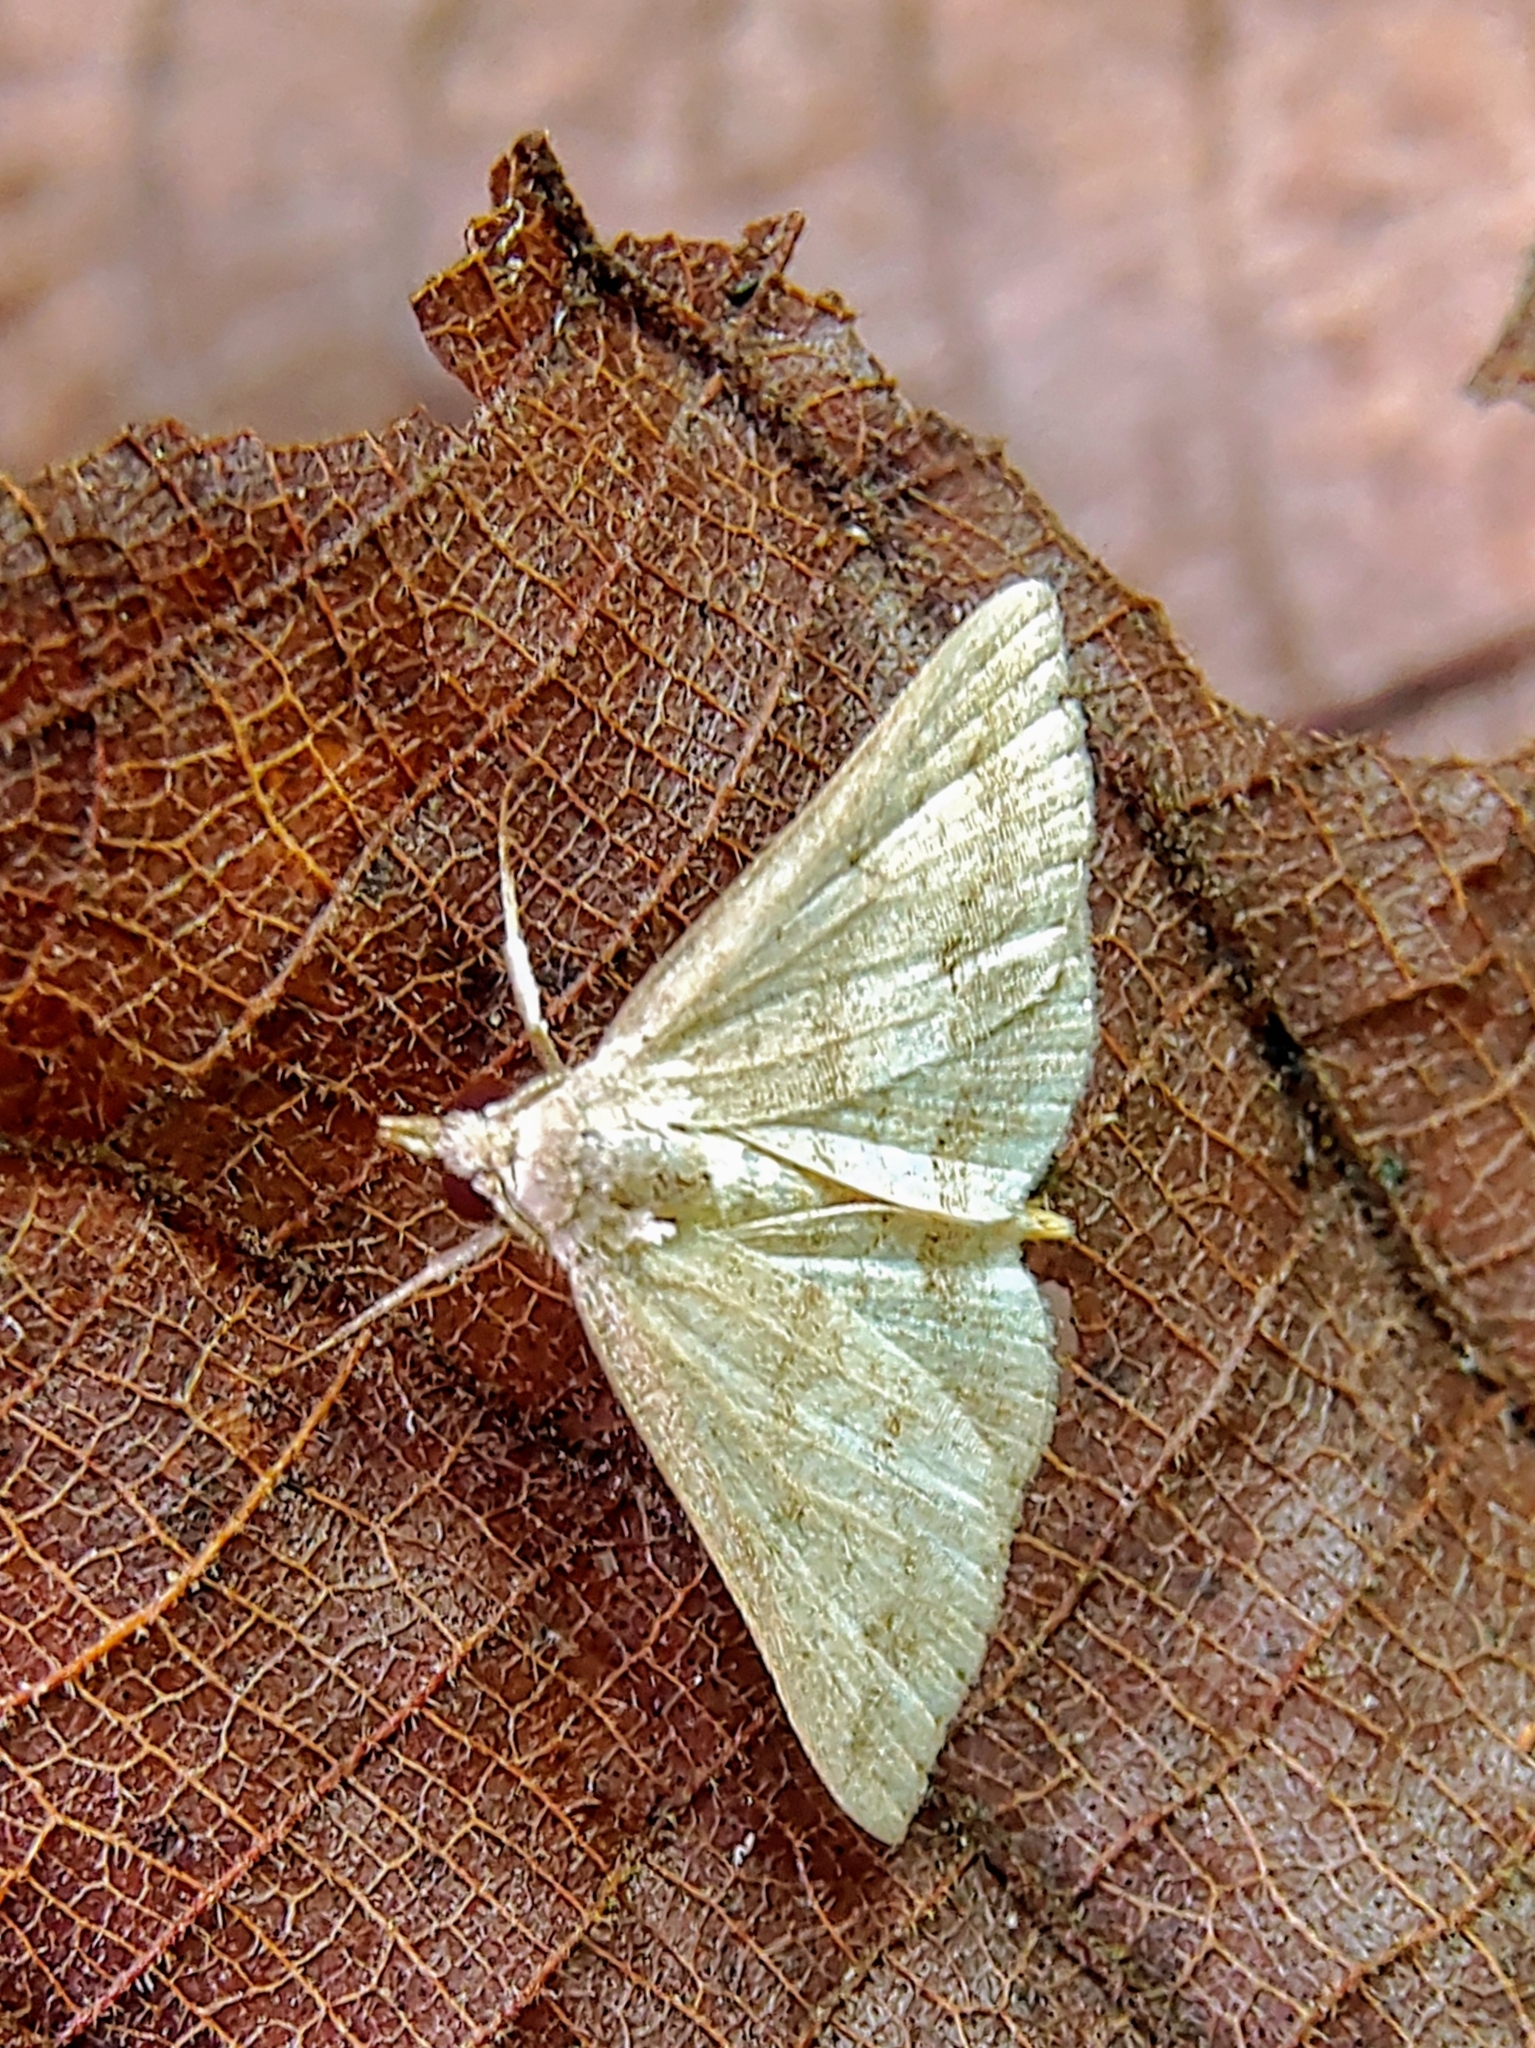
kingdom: Animalia
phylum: Arthropoda
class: Insecta
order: Lepidoptera
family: Erebidae
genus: Gesonia
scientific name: Gesonia obeditalis
